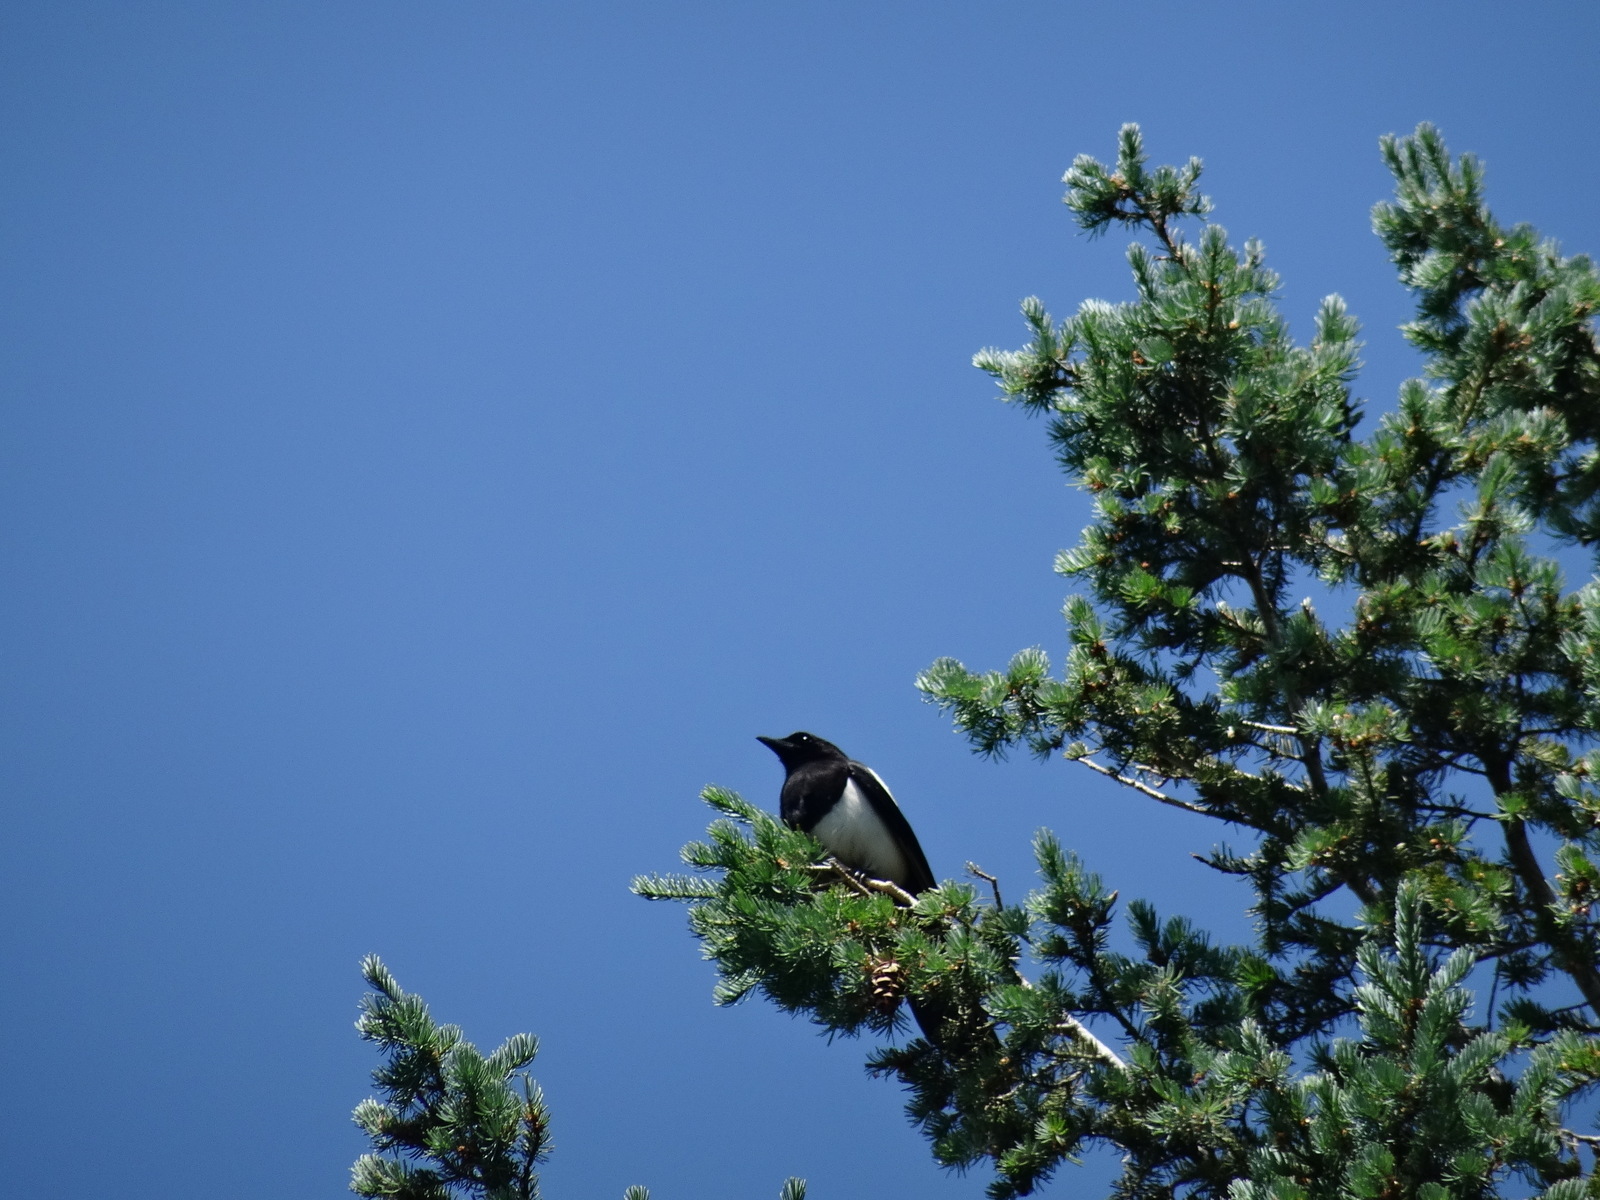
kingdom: Animalia
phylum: Chordata
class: Aves
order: Passeriformes
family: Corvidae
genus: Pica
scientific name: Pica hudsonia
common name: Black-billed magpie
